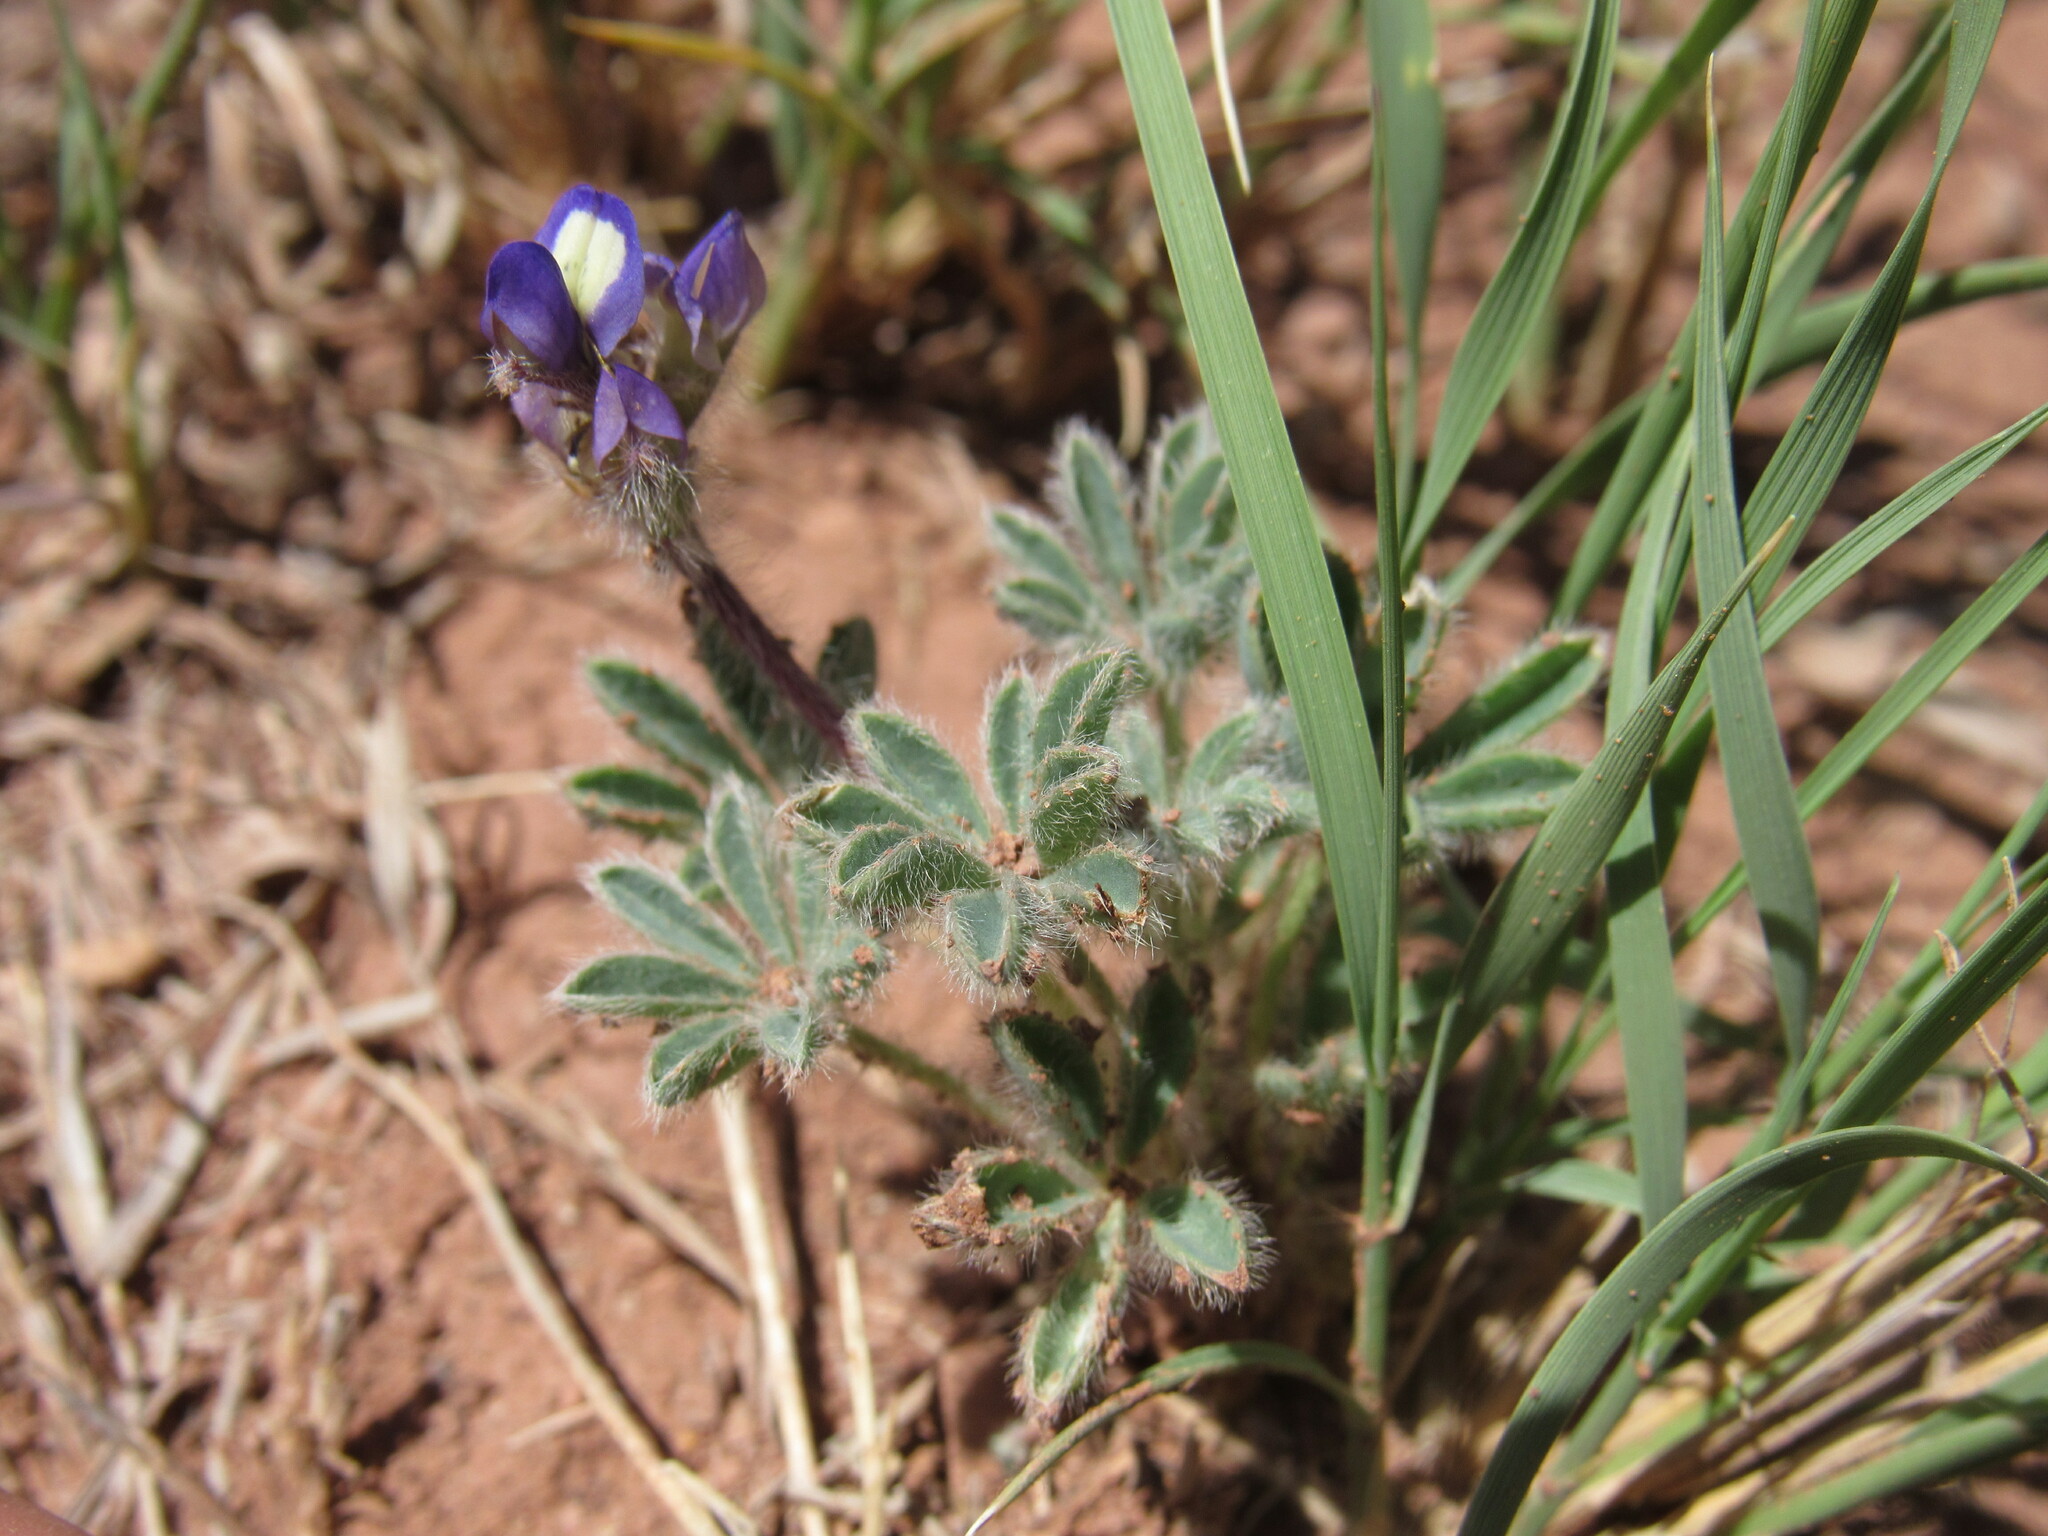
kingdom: Plantae
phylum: Tracheophyta
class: Magnoliopsida
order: Fabales
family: Fabaceae
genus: Lupinus
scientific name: Lupinus brevicaulis
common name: Sand lupine
